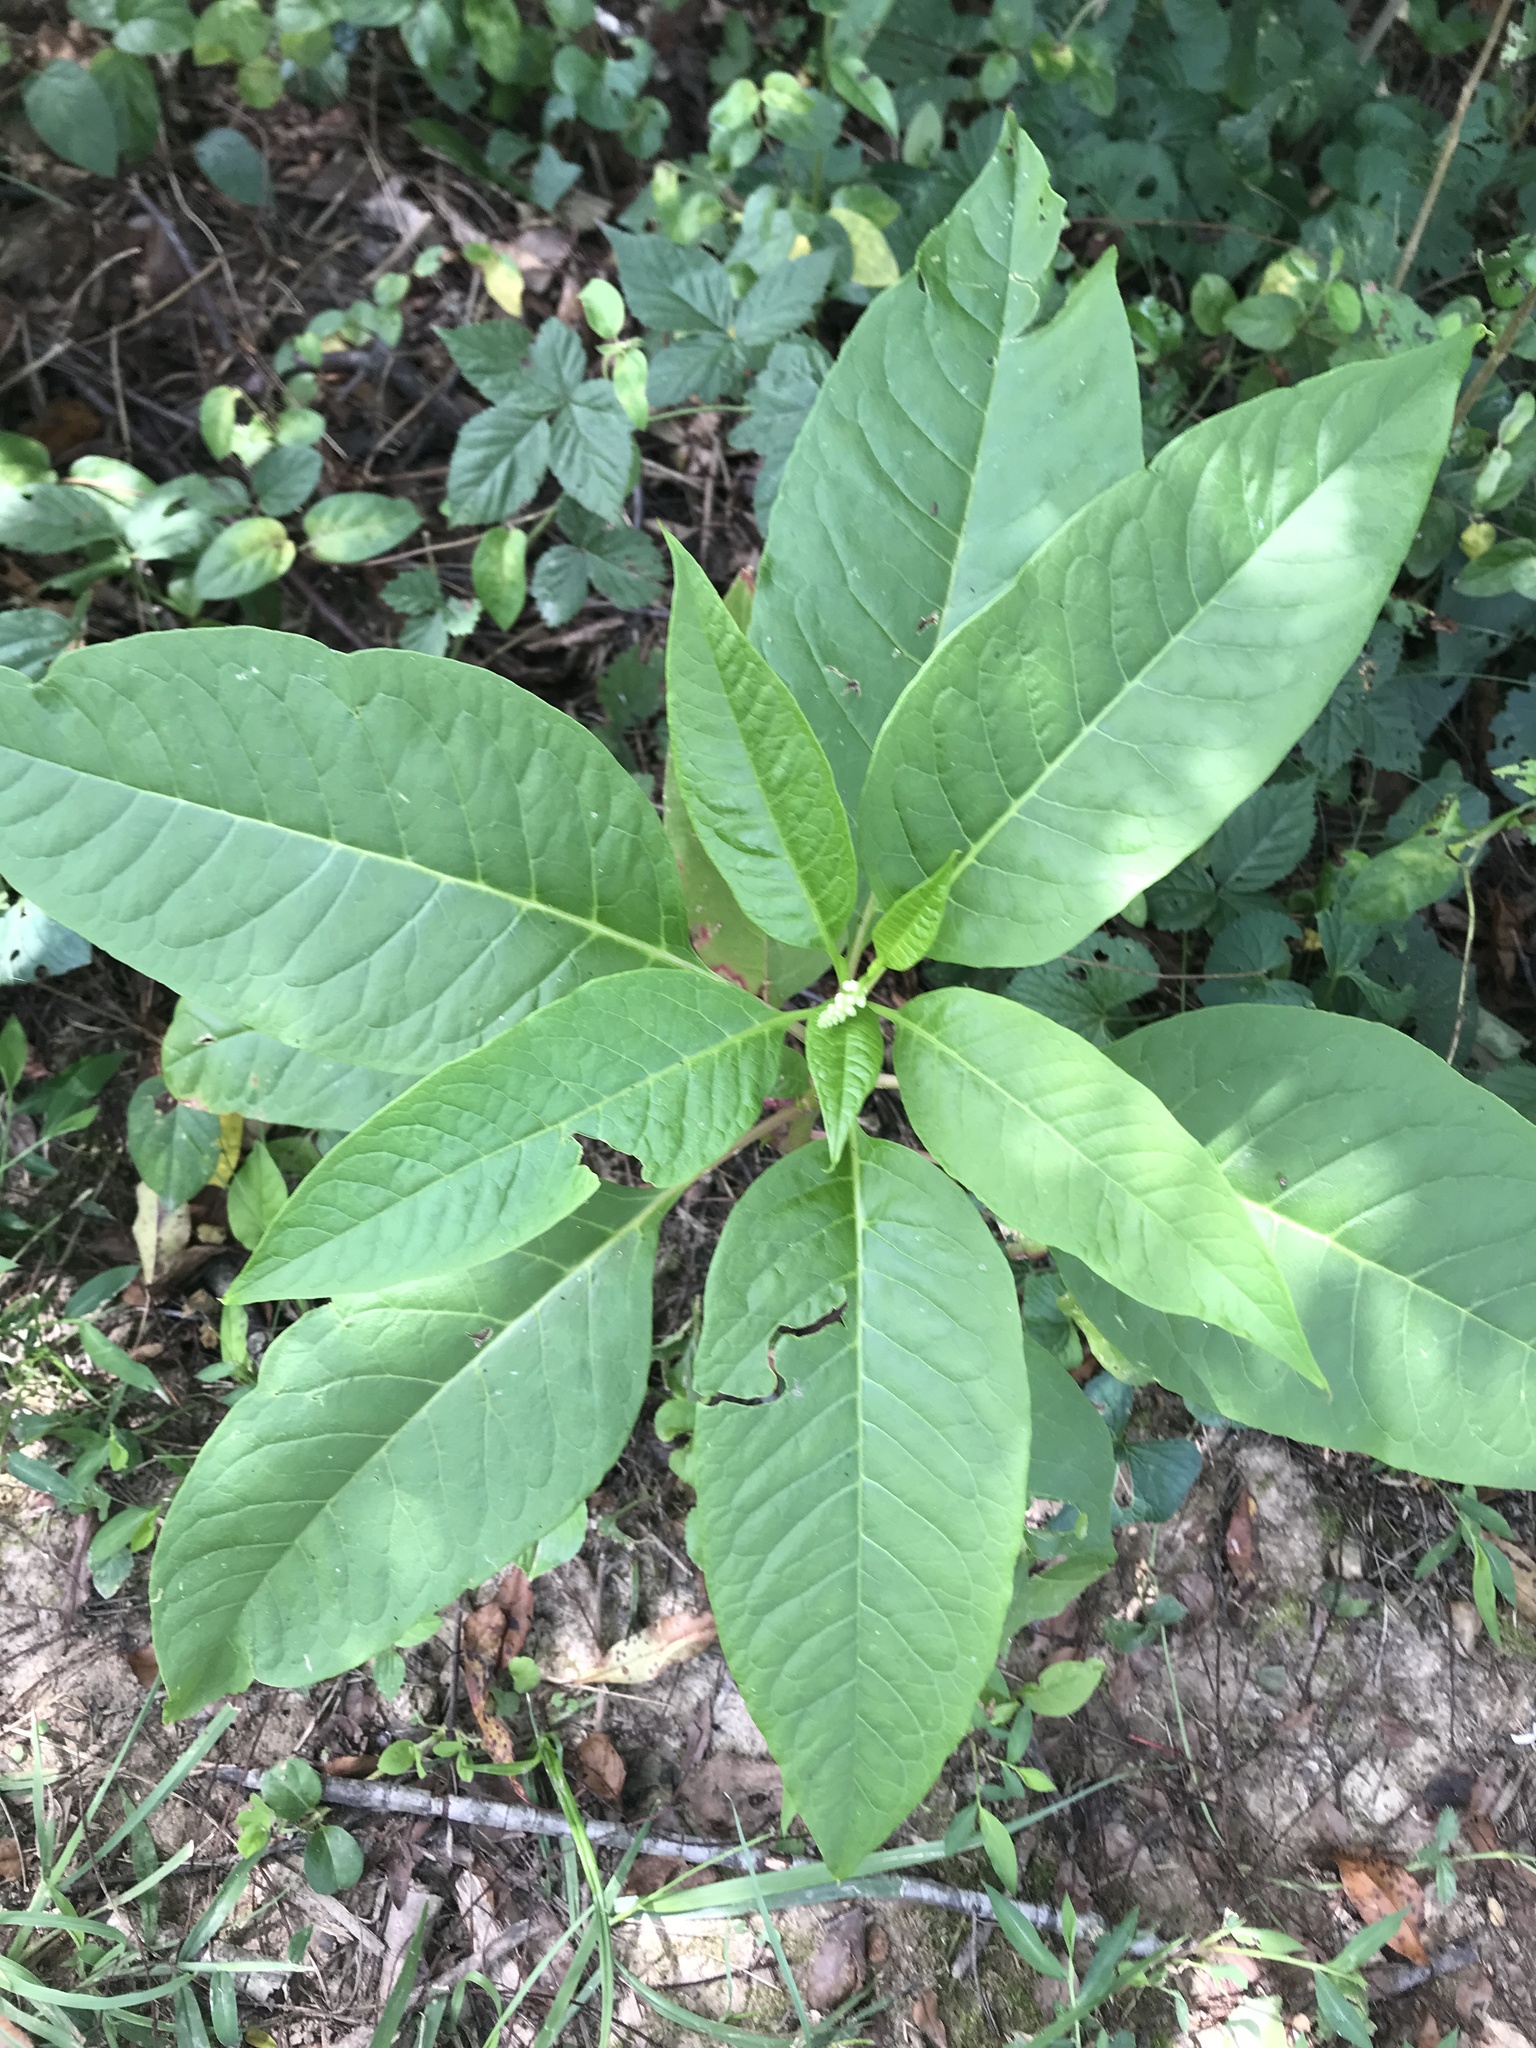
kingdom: Plantae
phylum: Tracheophyta
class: Magnoliopsida
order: Caryophyllales
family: Phytolaccaceae
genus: Phytolacca
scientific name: Phytolacca americana
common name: American pokeweed
